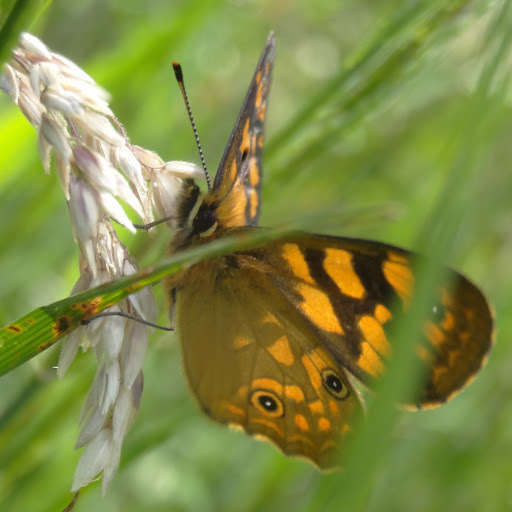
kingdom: Animalia
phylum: Arthropoda
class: Insecta
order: Lepidoptera
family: Nymphalidae
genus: Oreixenica
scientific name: Oreixenica correae
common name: Correa brown
